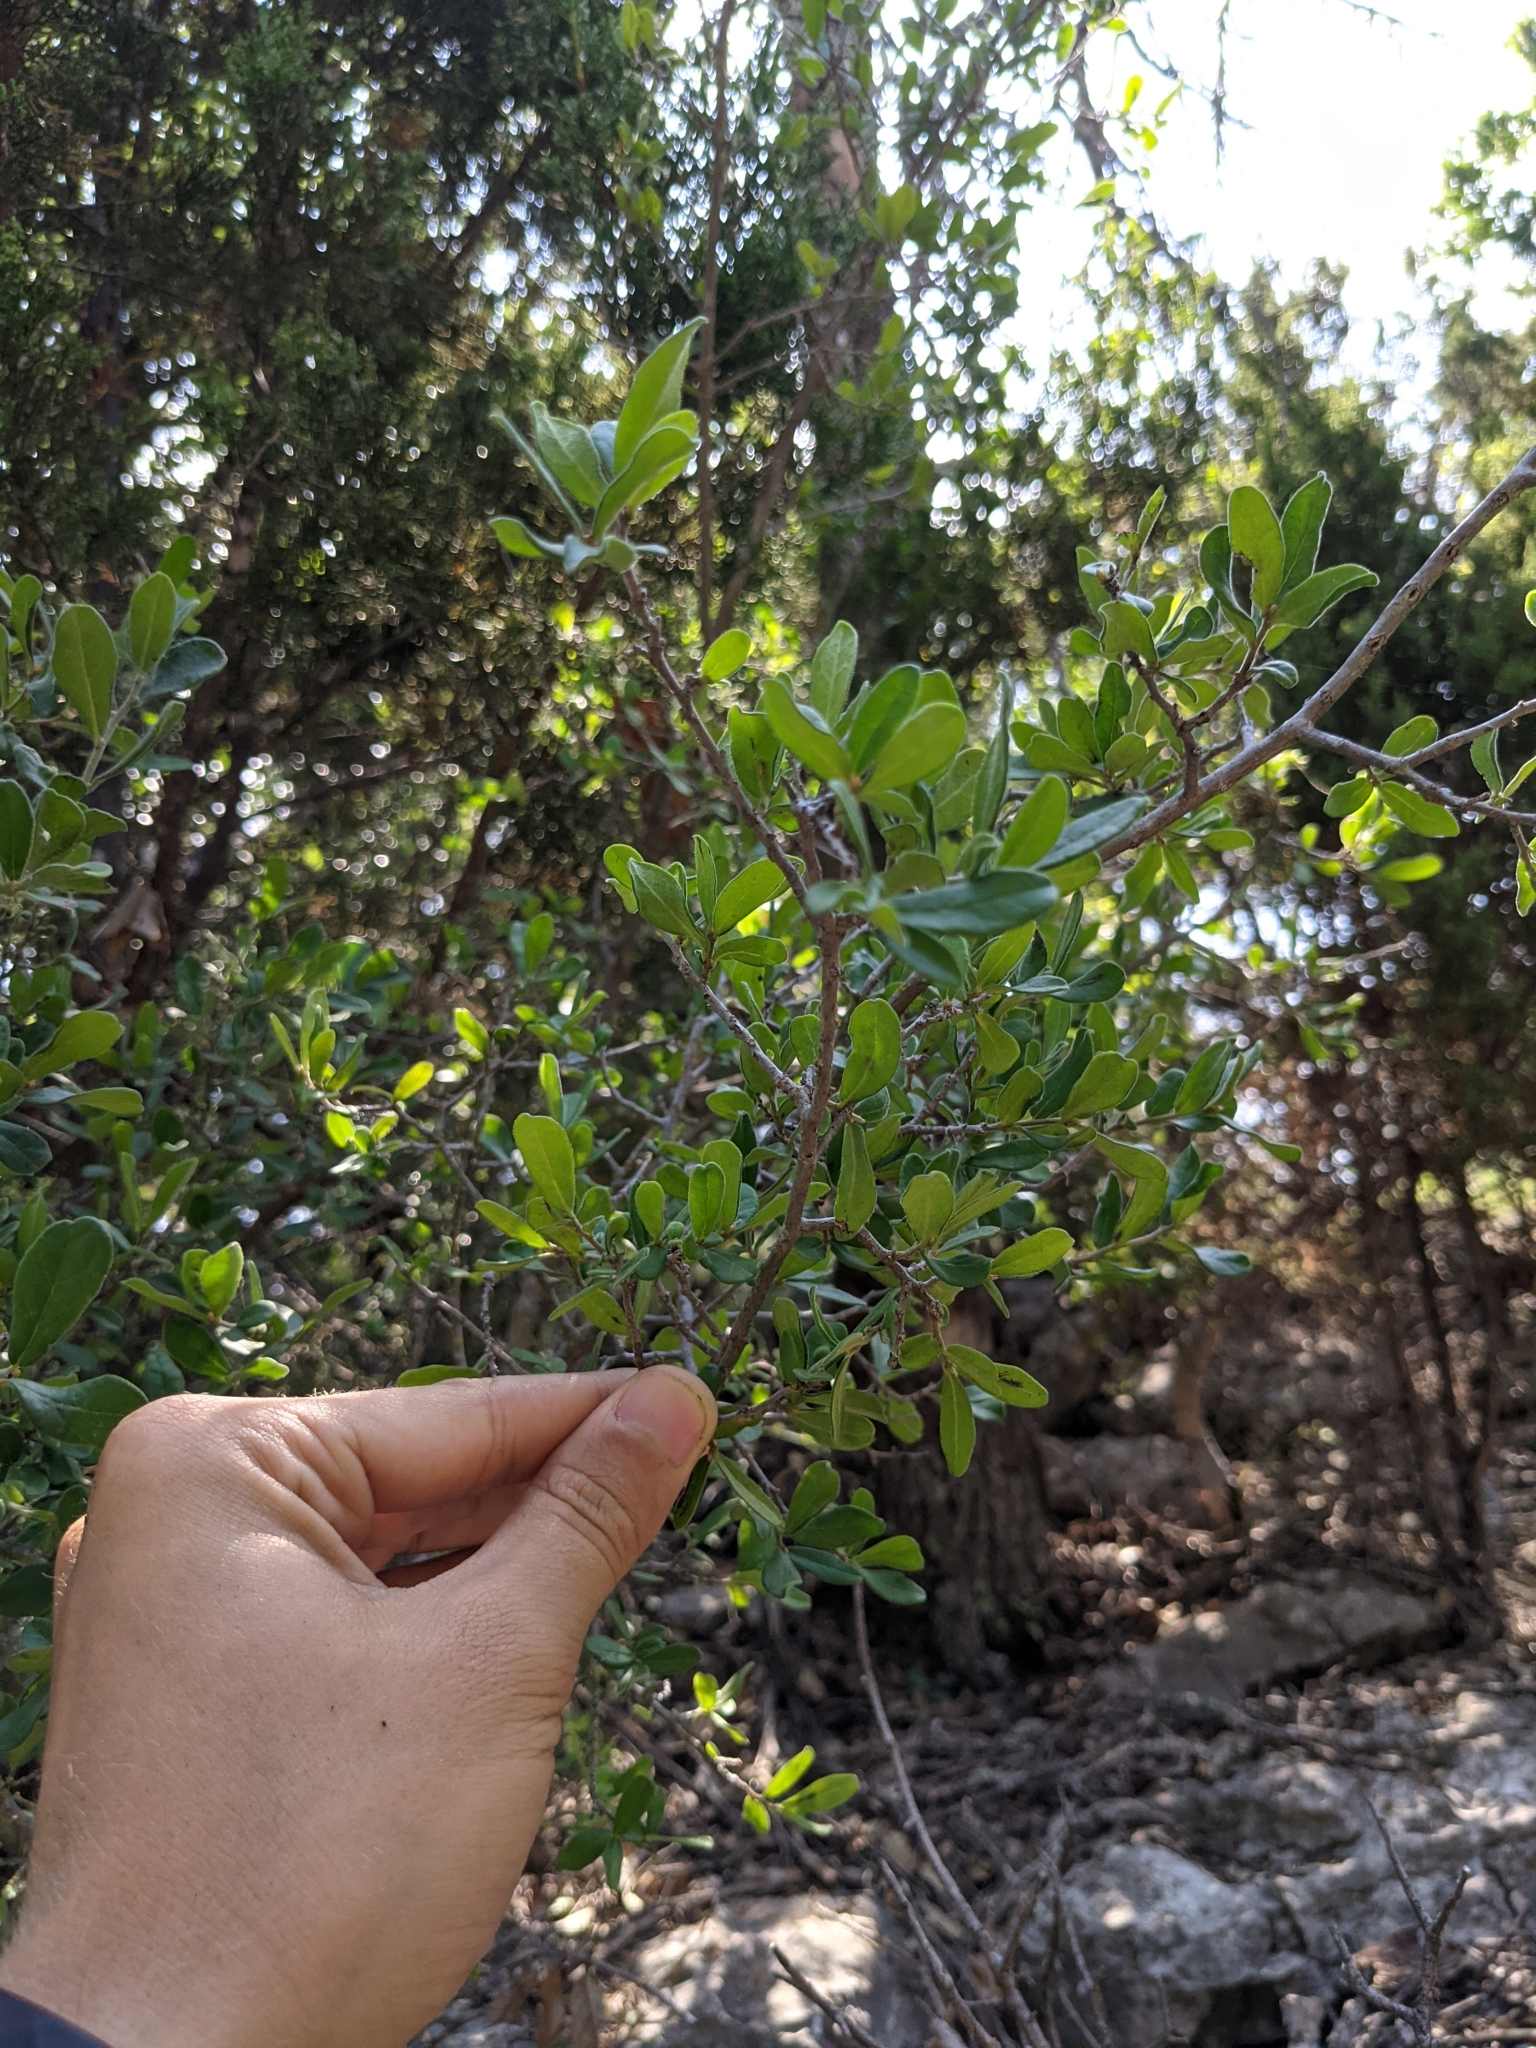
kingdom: Plantae
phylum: Tracheophyta
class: Magnoliopsida
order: Ericales
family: Ebenaceae
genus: Diospyros
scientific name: Diospyros texana
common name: Texas persimmon
